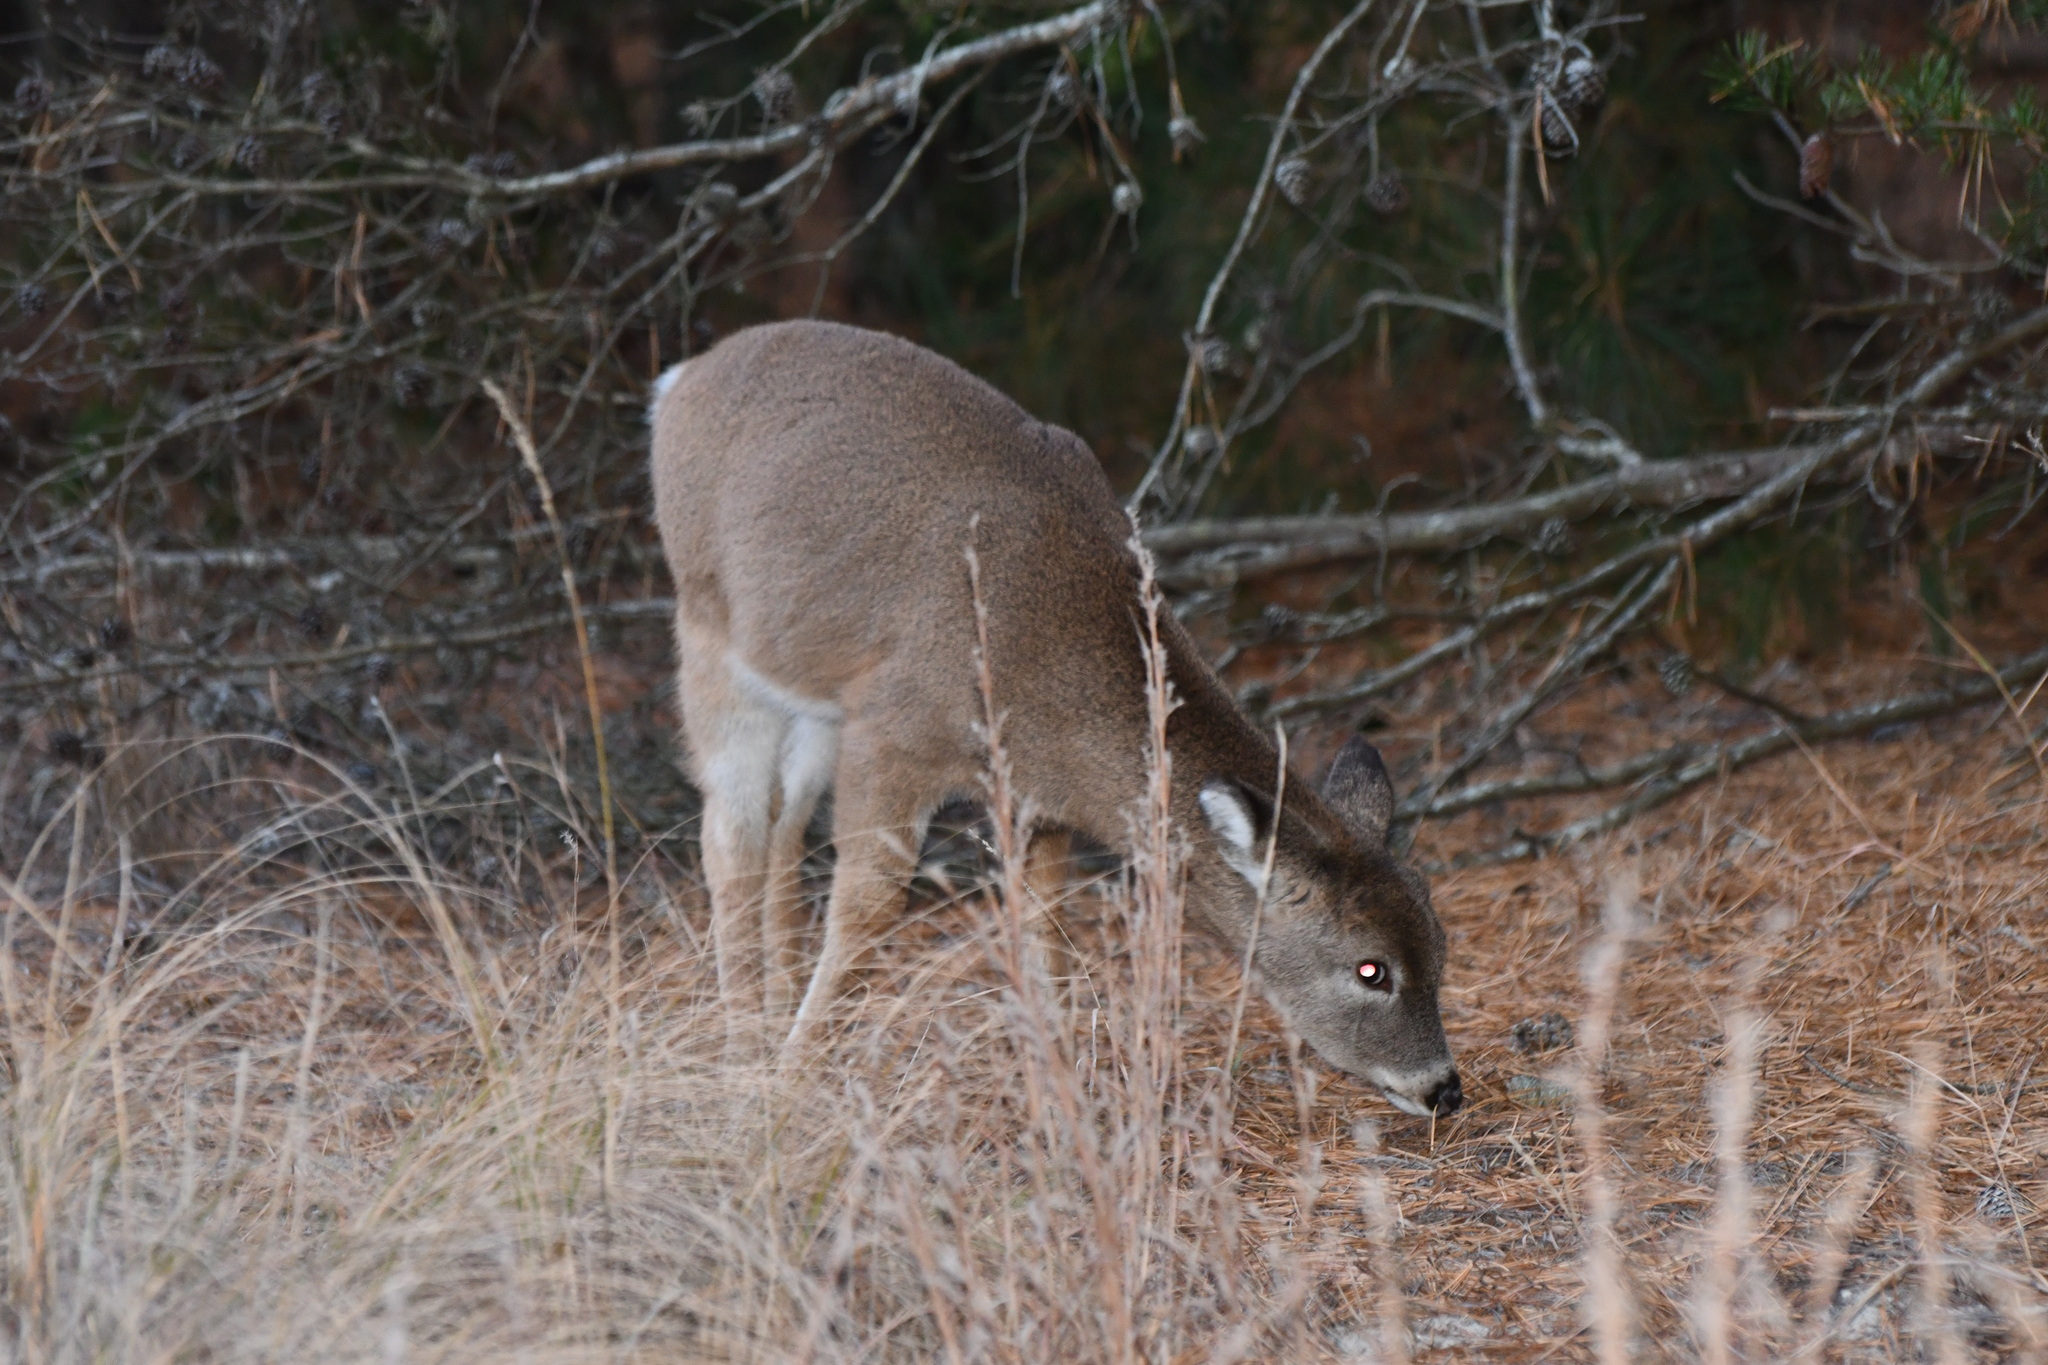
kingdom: Animalia
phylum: Chordata
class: Mammalia
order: Artiodactyla
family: Cervidae
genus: Odocoileus
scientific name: Odocoileus virginianus
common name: White-tailed deer
